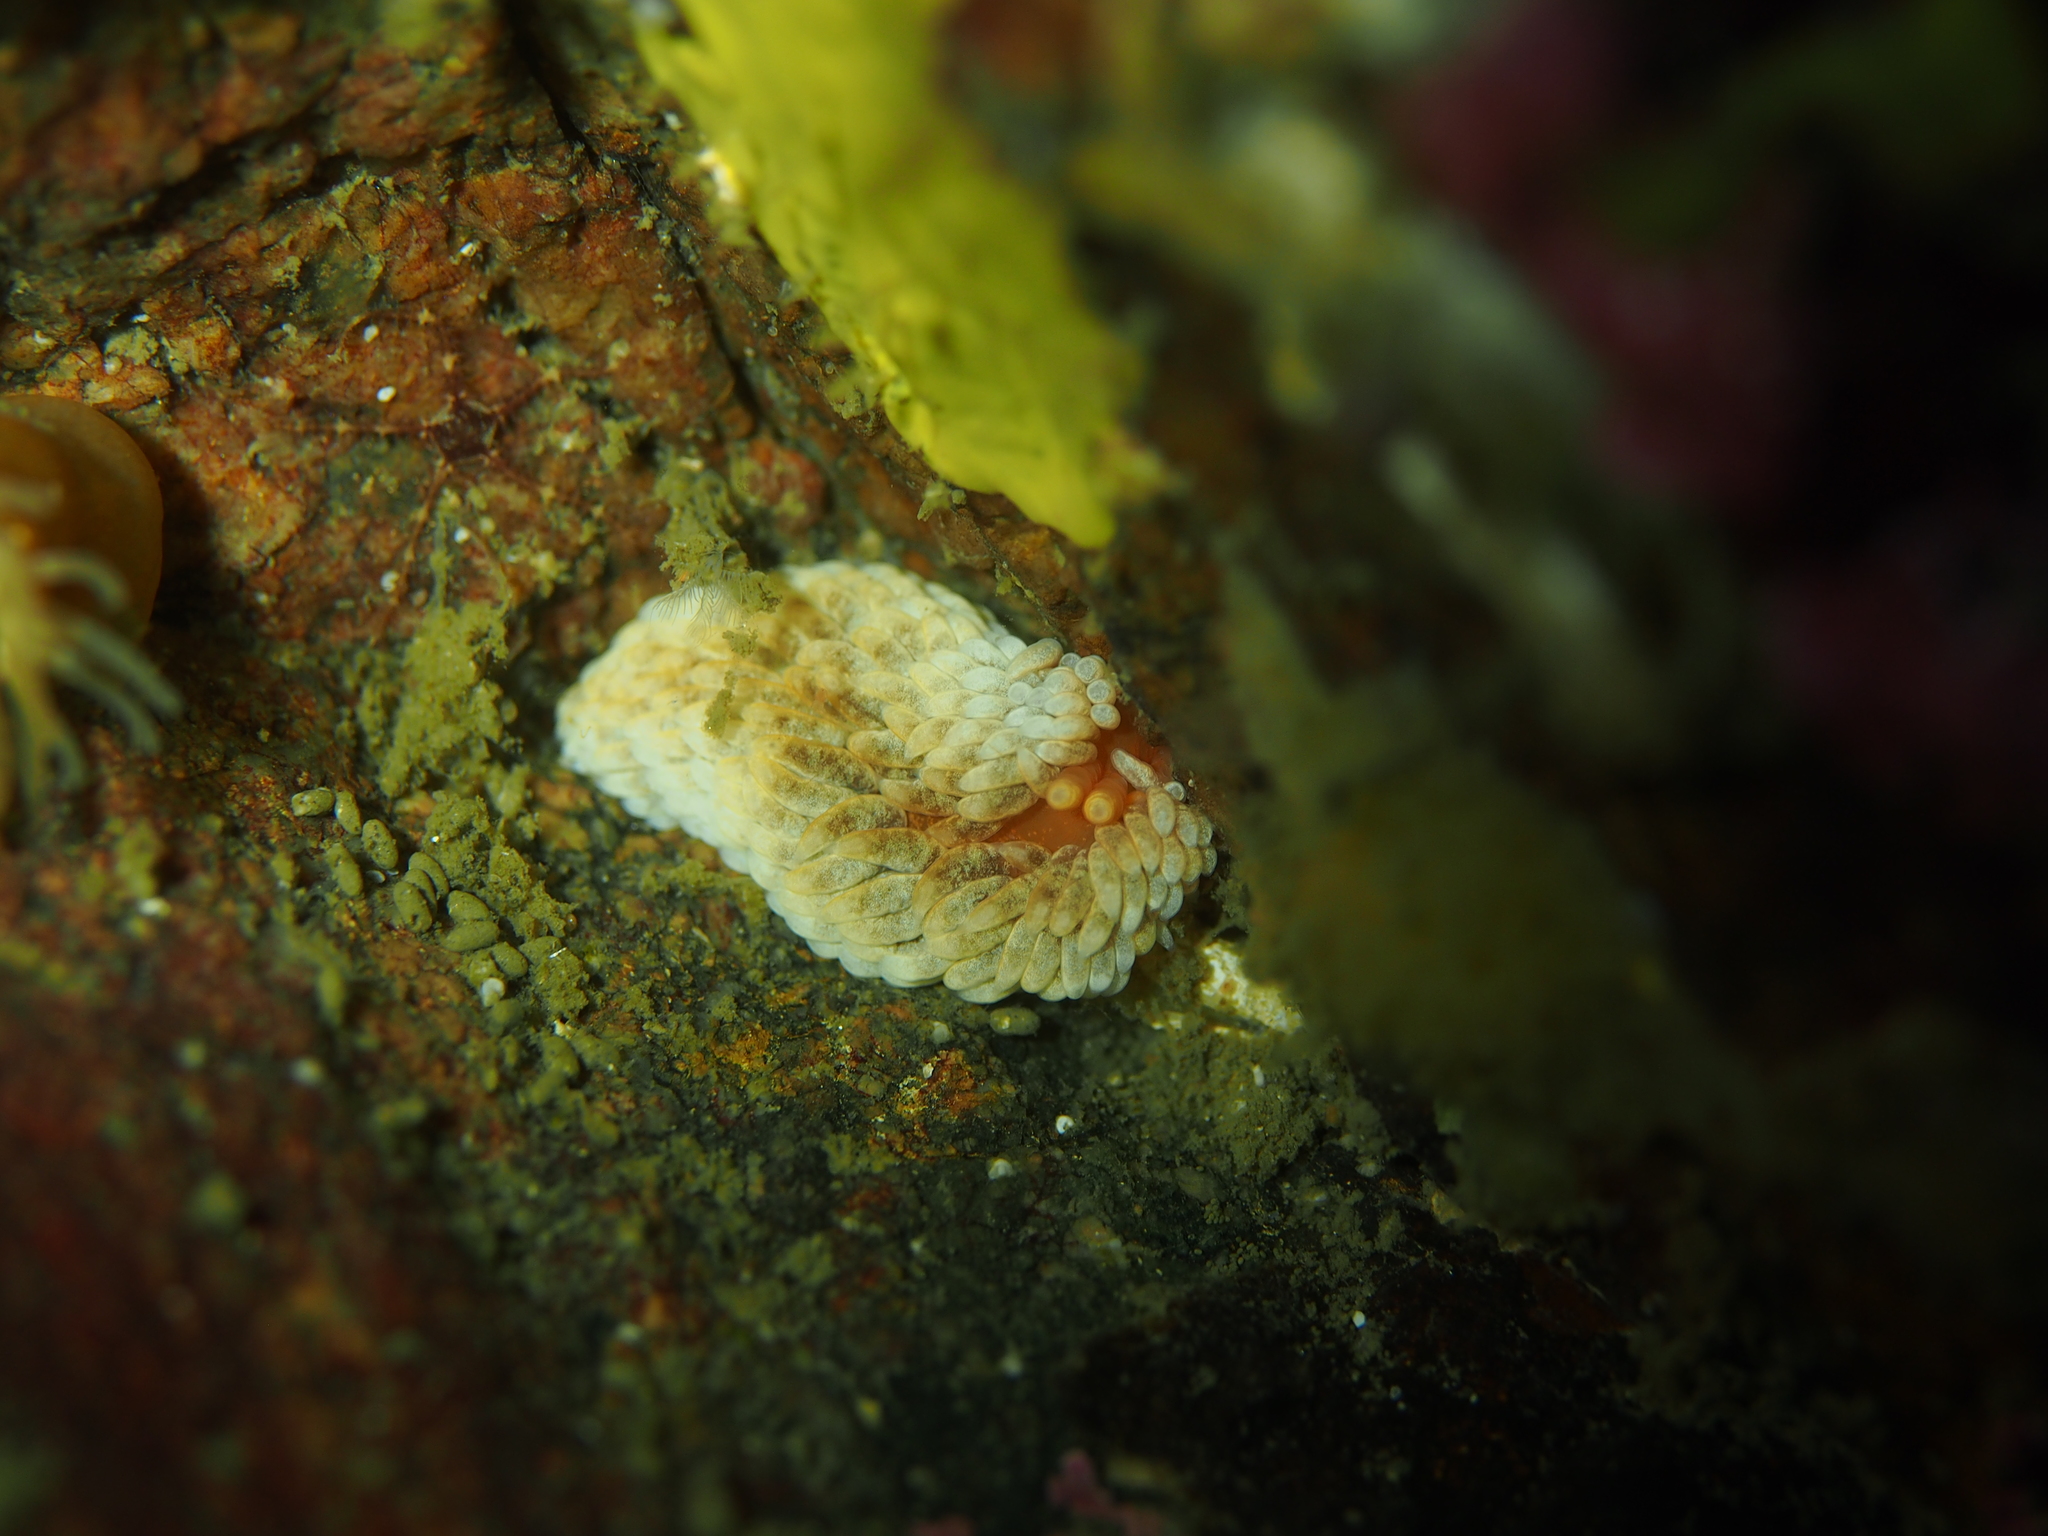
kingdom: Animalia
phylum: Mollusca
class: Gastropoda
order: Nudibranchia
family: Aeolidiidae
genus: Aeolidiella
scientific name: Aeolidiella glauca
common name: Orange-brown aeolid
